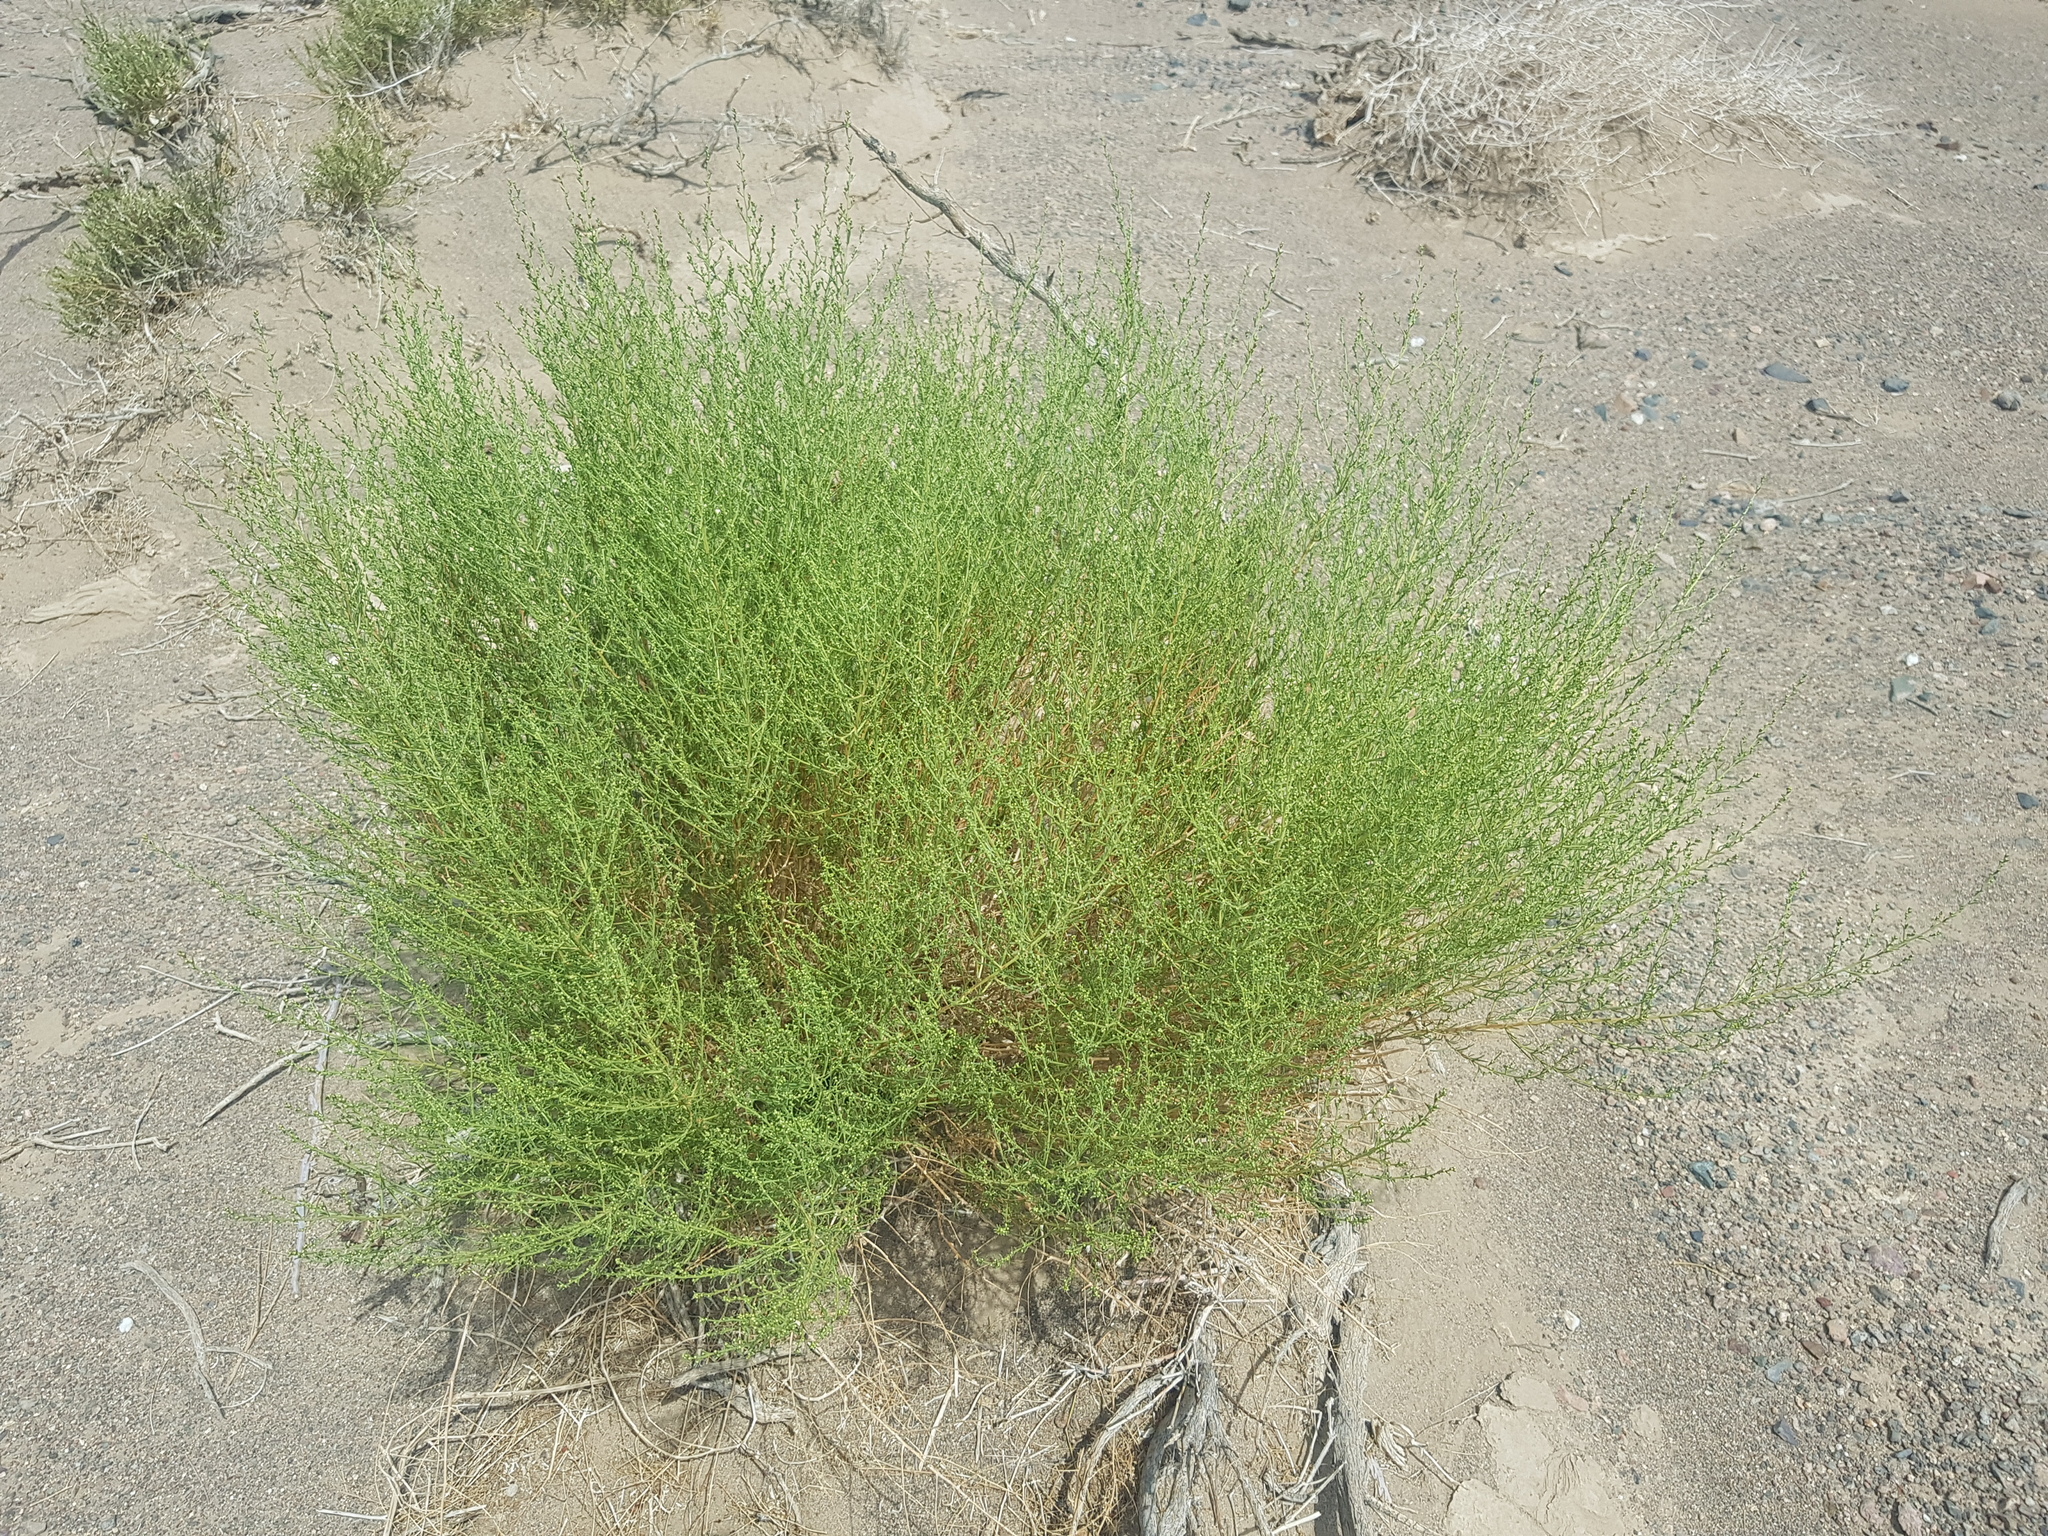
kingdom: Plantae
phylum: Tracheophyta
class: Magnoliopsida
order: Asterales
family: Asteraceae
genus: Artemisia
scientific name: Artemisia xanthochloa
